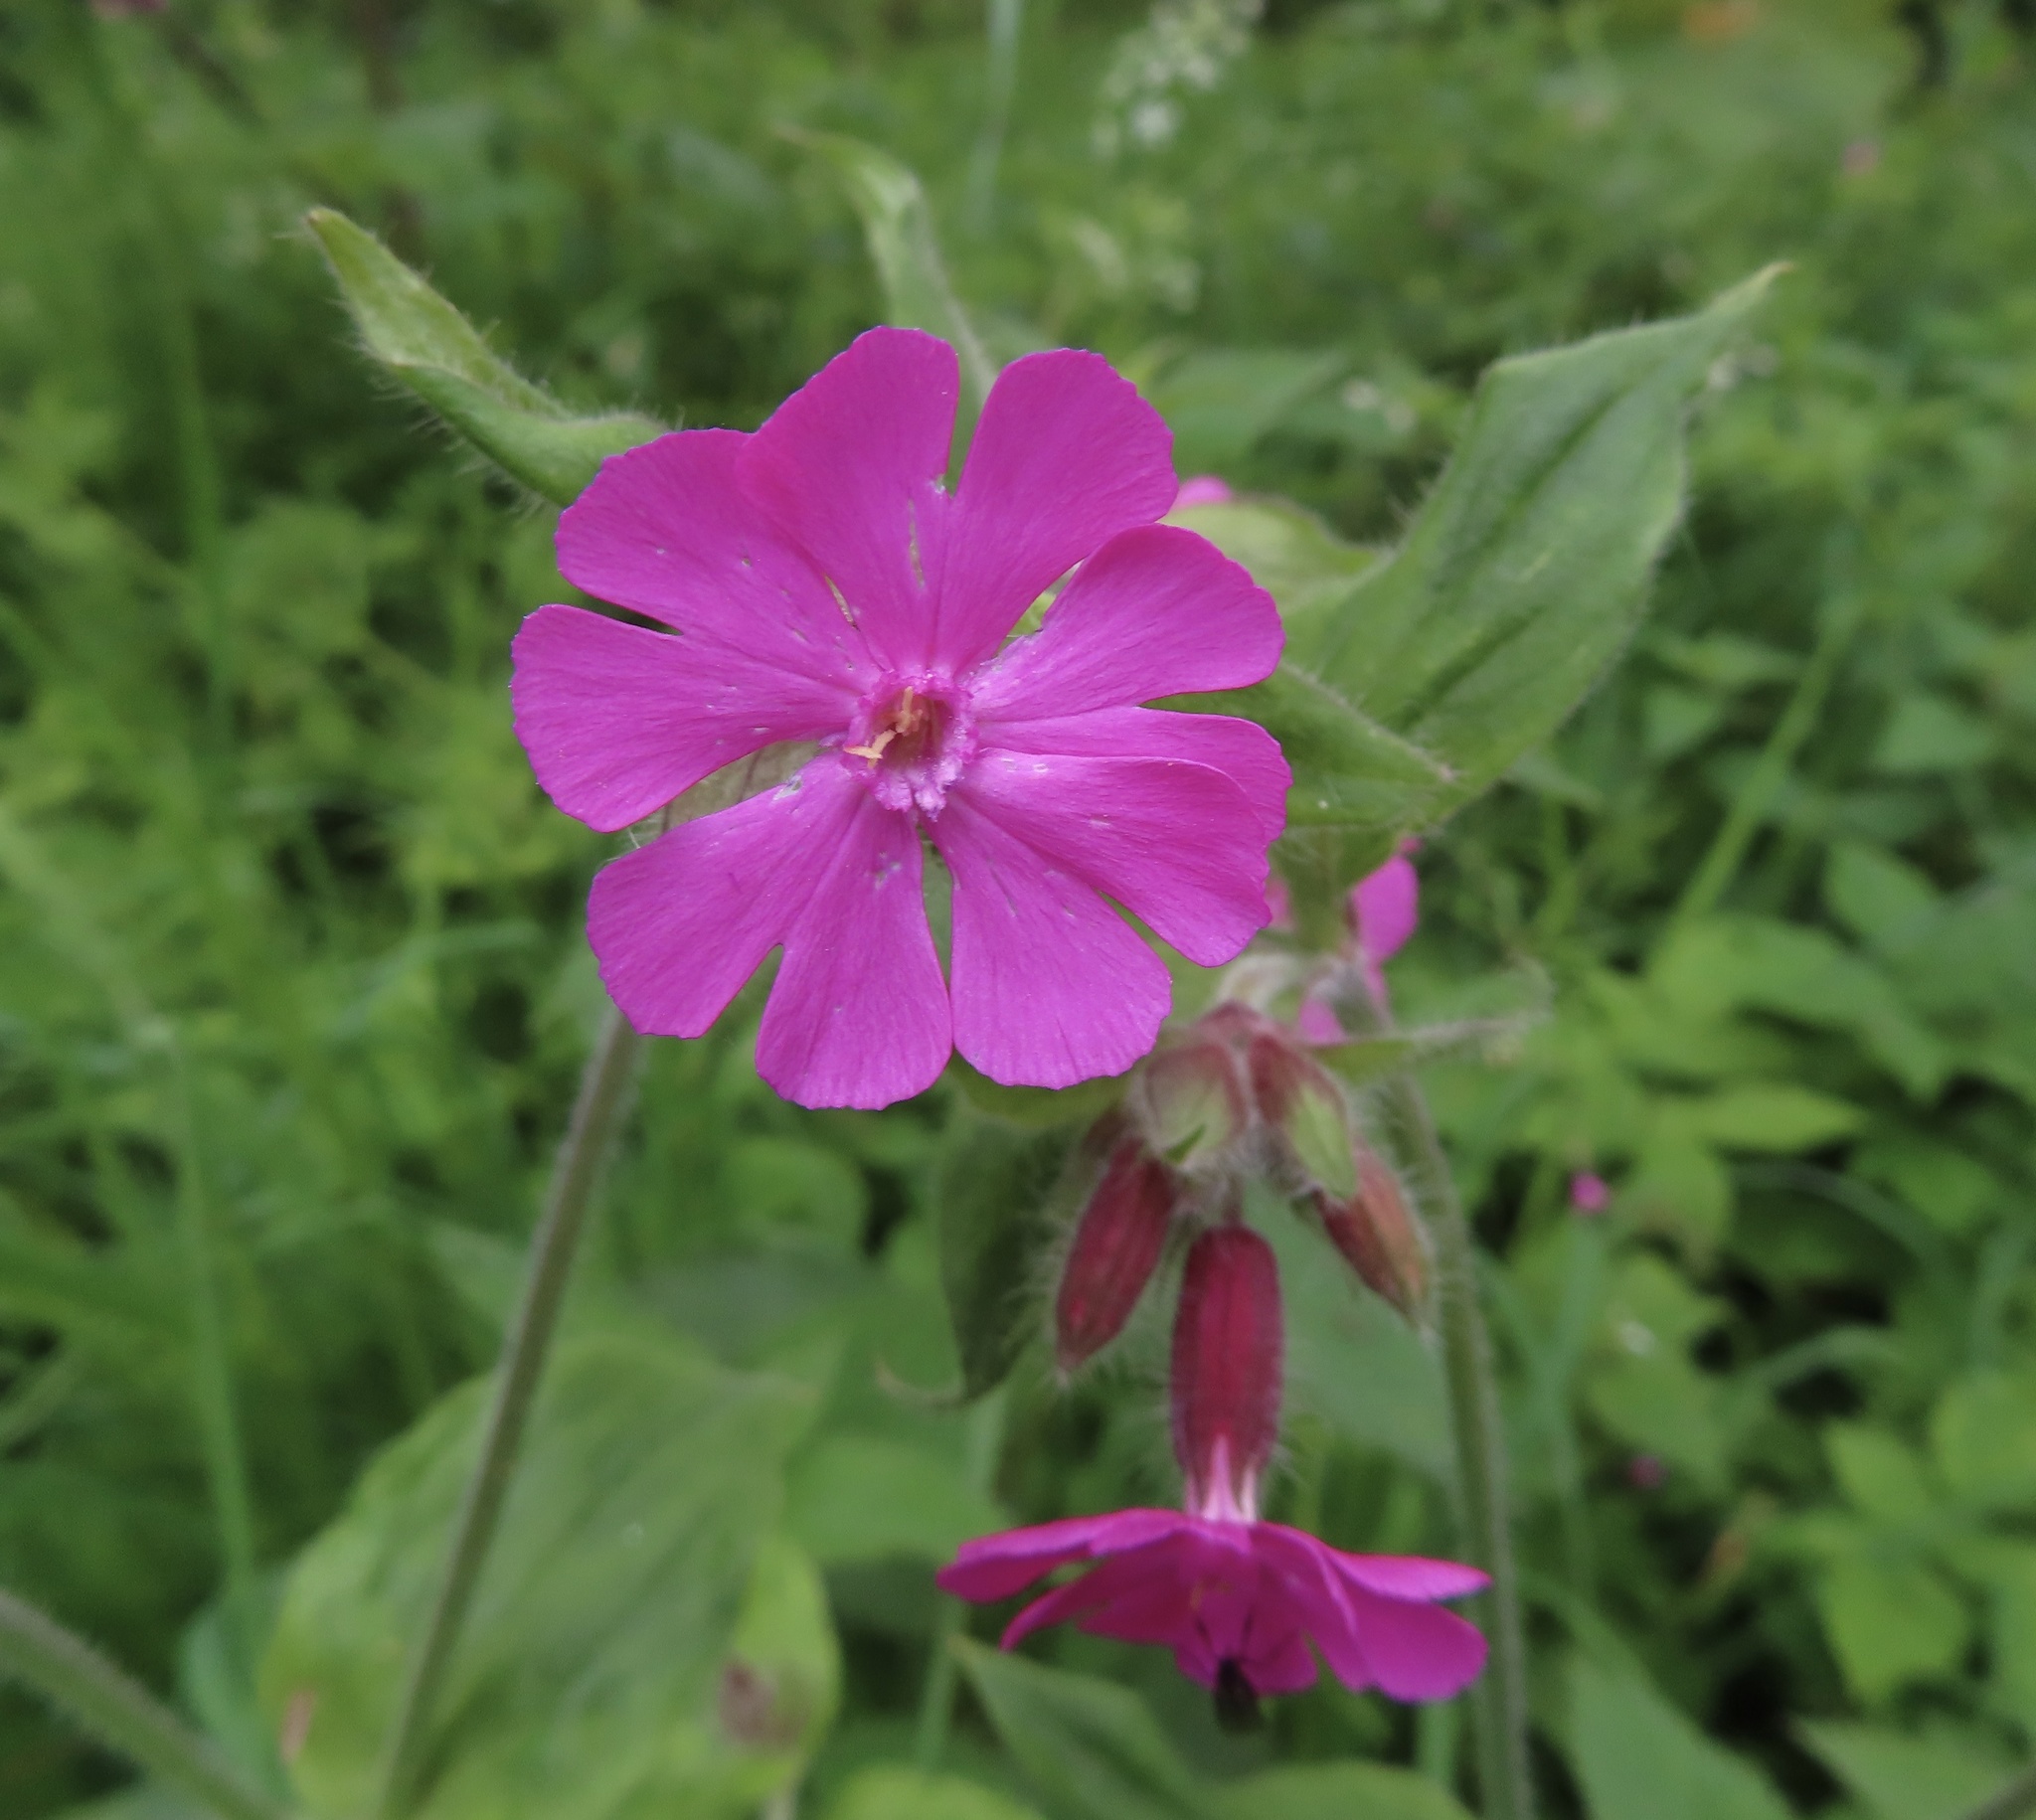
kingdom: Plantae
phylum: Tracheophyta
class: Magnoliopsida
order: Caryophyllales
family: Caryophyllaceae
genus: Silene
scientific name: Silene dioica
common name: Red campion
